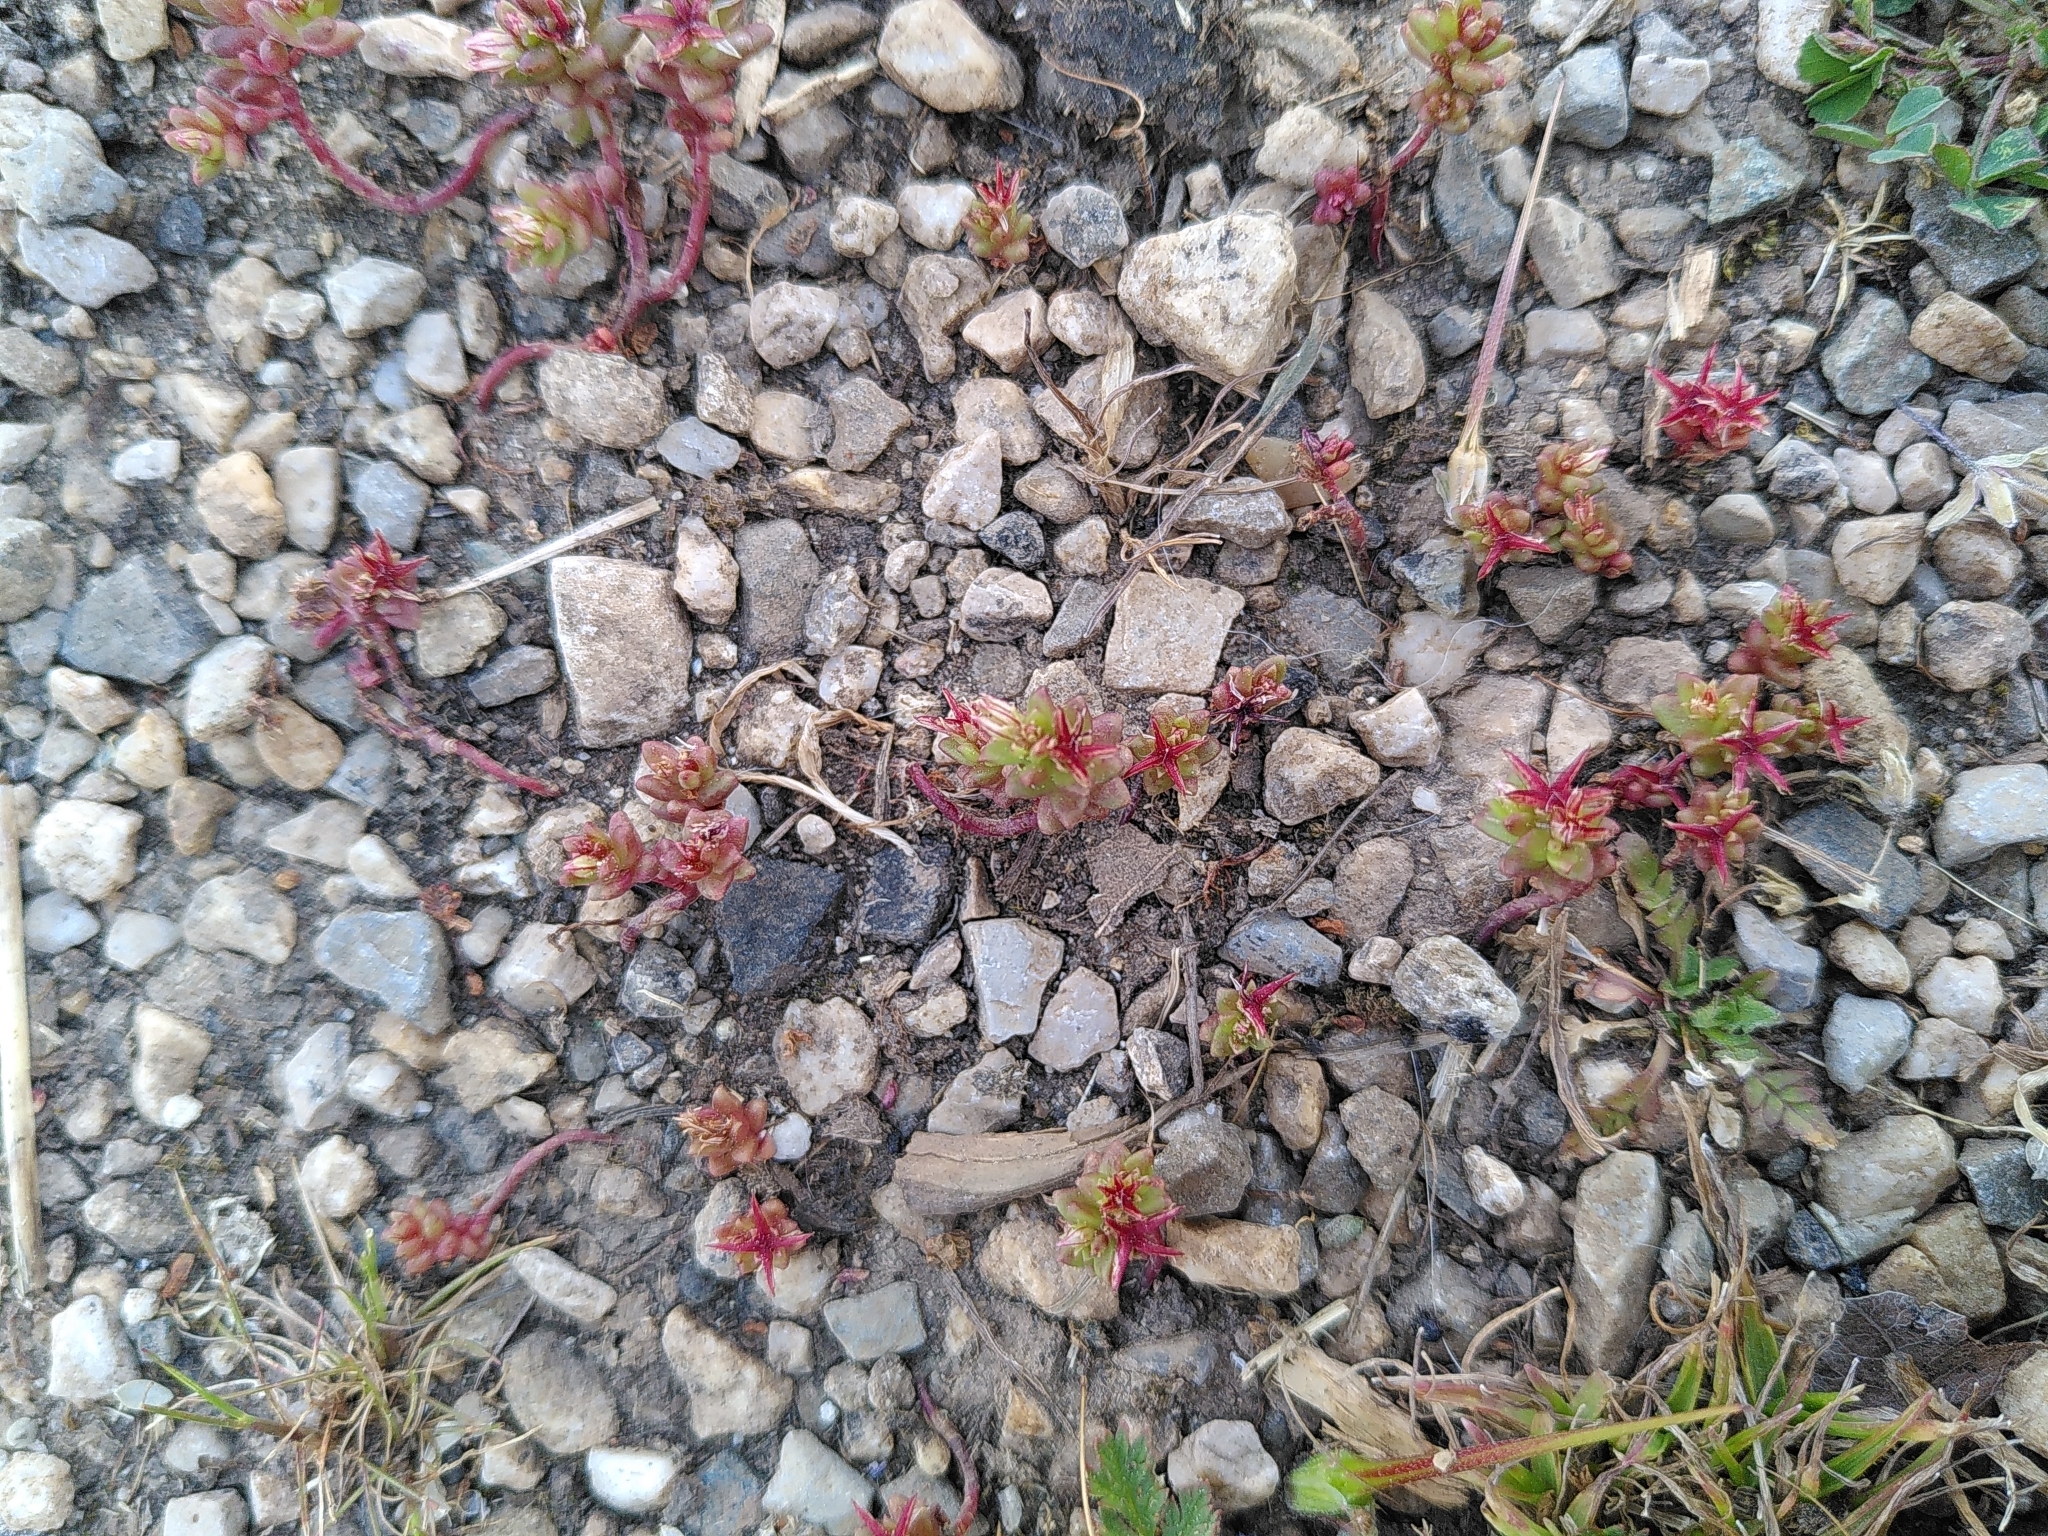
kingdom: Plantae
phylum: Tracheophyta
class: Magnoliopsida
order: Saxifragales
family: Crassulaceae
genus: Sedum
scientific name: Sedum cespitosum
